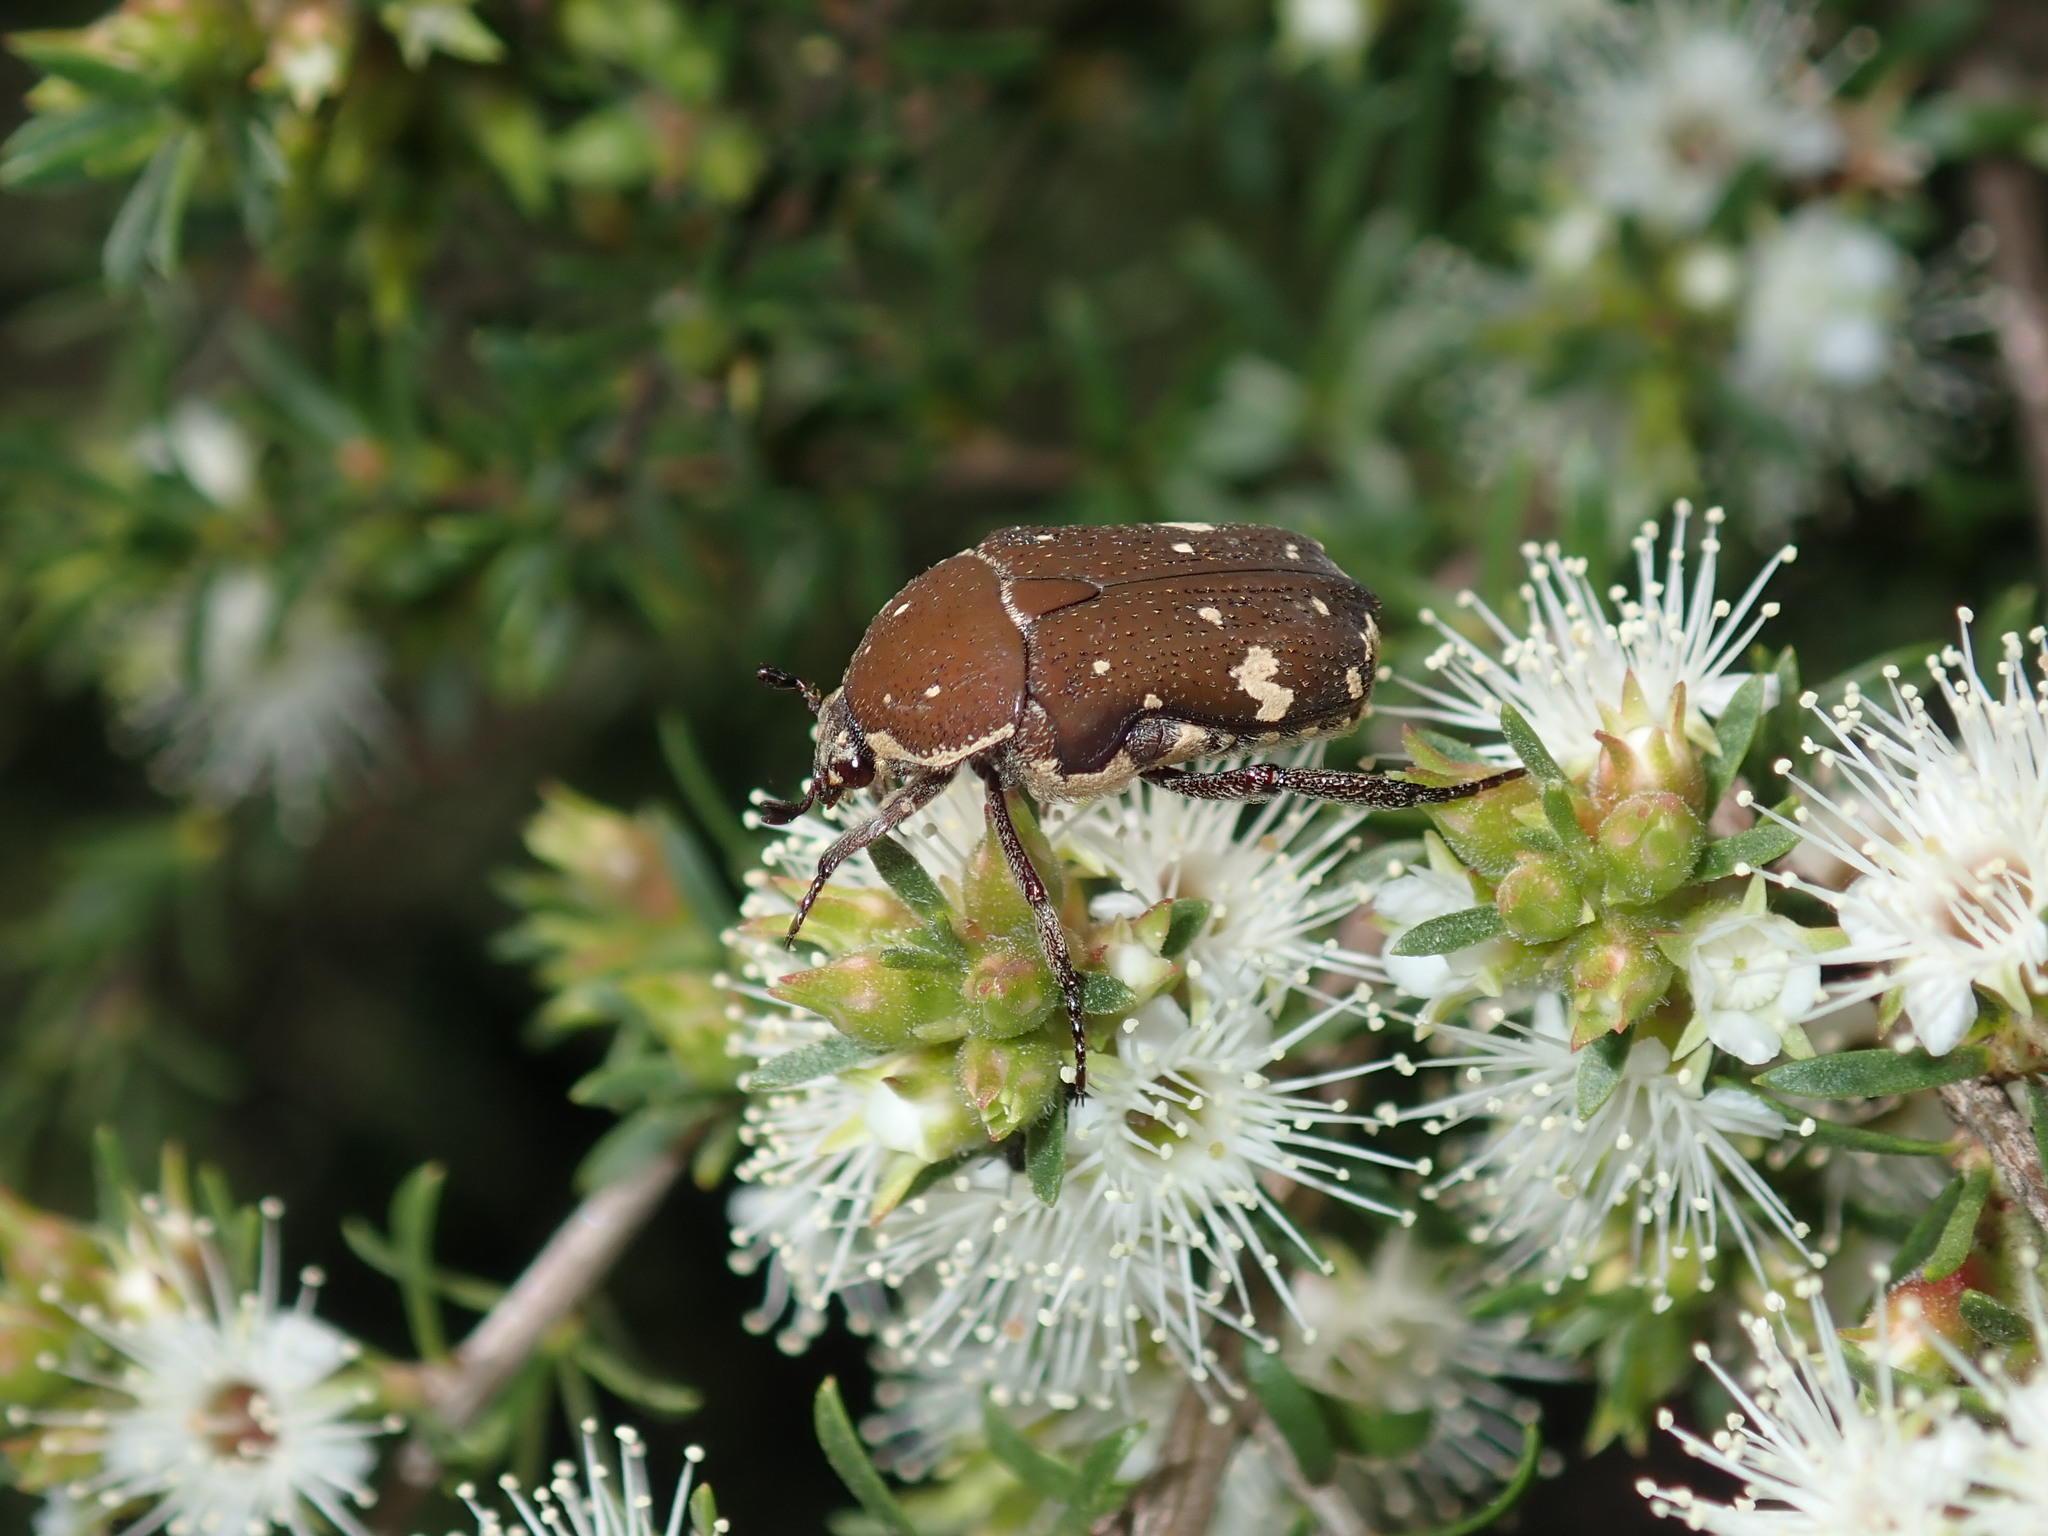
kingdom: Animalia
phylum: Arthropoda
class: Insecta
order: Coleoptera
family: Scarabaeidae
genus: Glycyphana
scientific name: Glycyphana stolata
